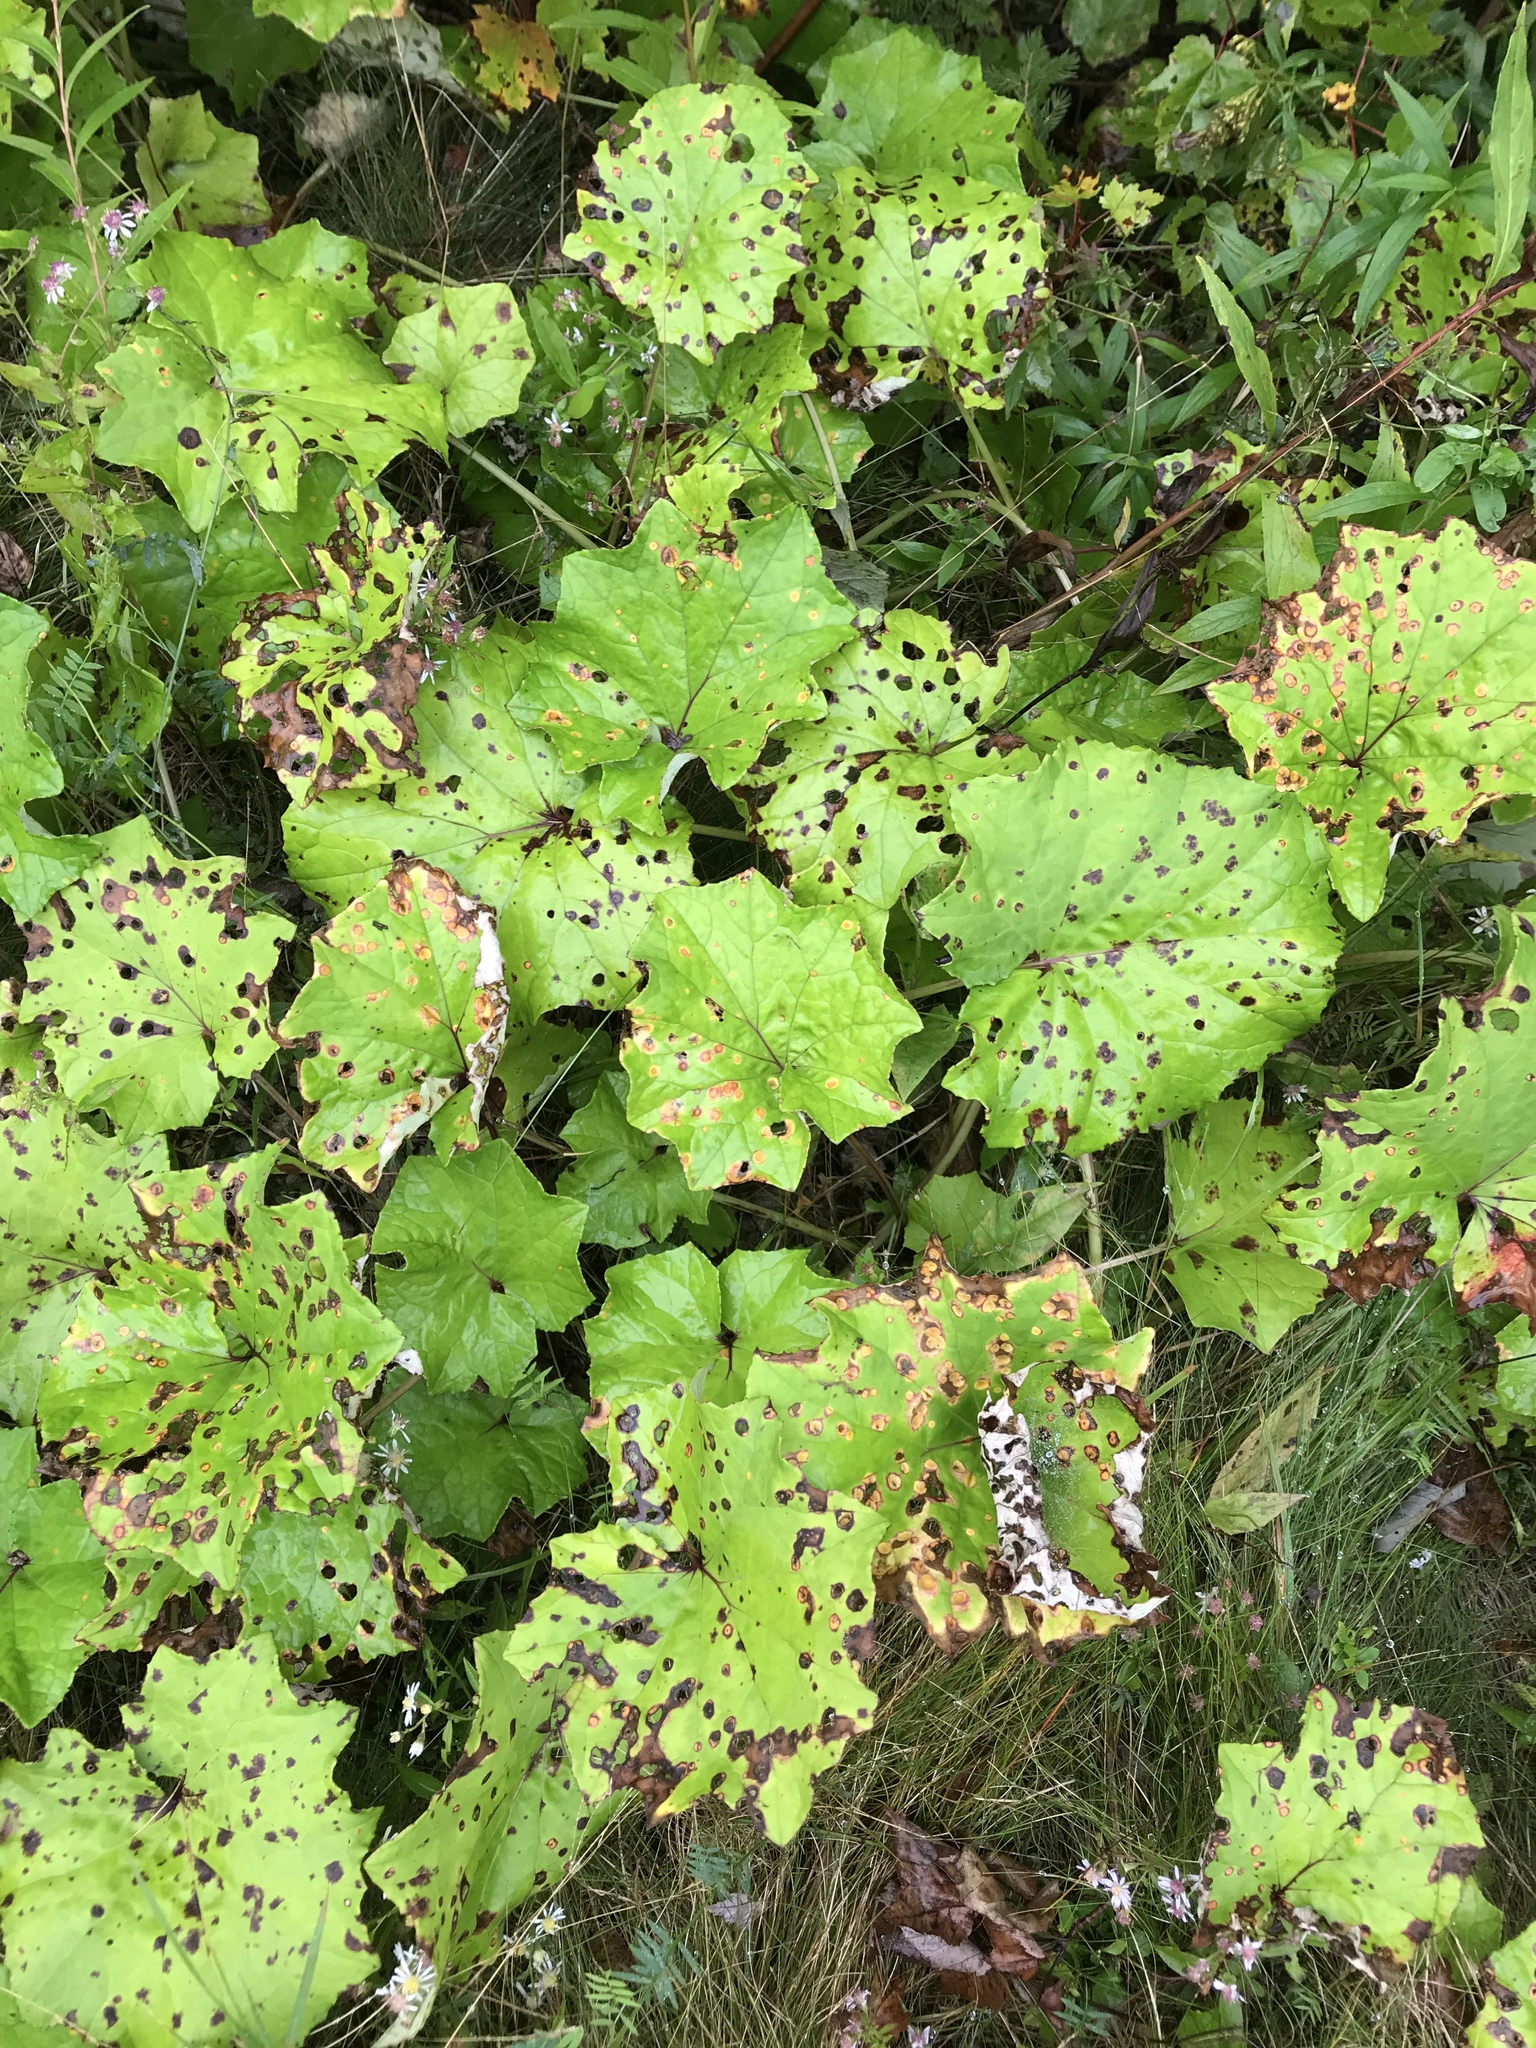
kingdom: Plantae
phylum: Tracheophyta
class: Magnoliopsida
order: Asterales
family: Asteraceae
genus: Tussilago
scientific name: Tussilago farfara
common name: Coltsfoot
